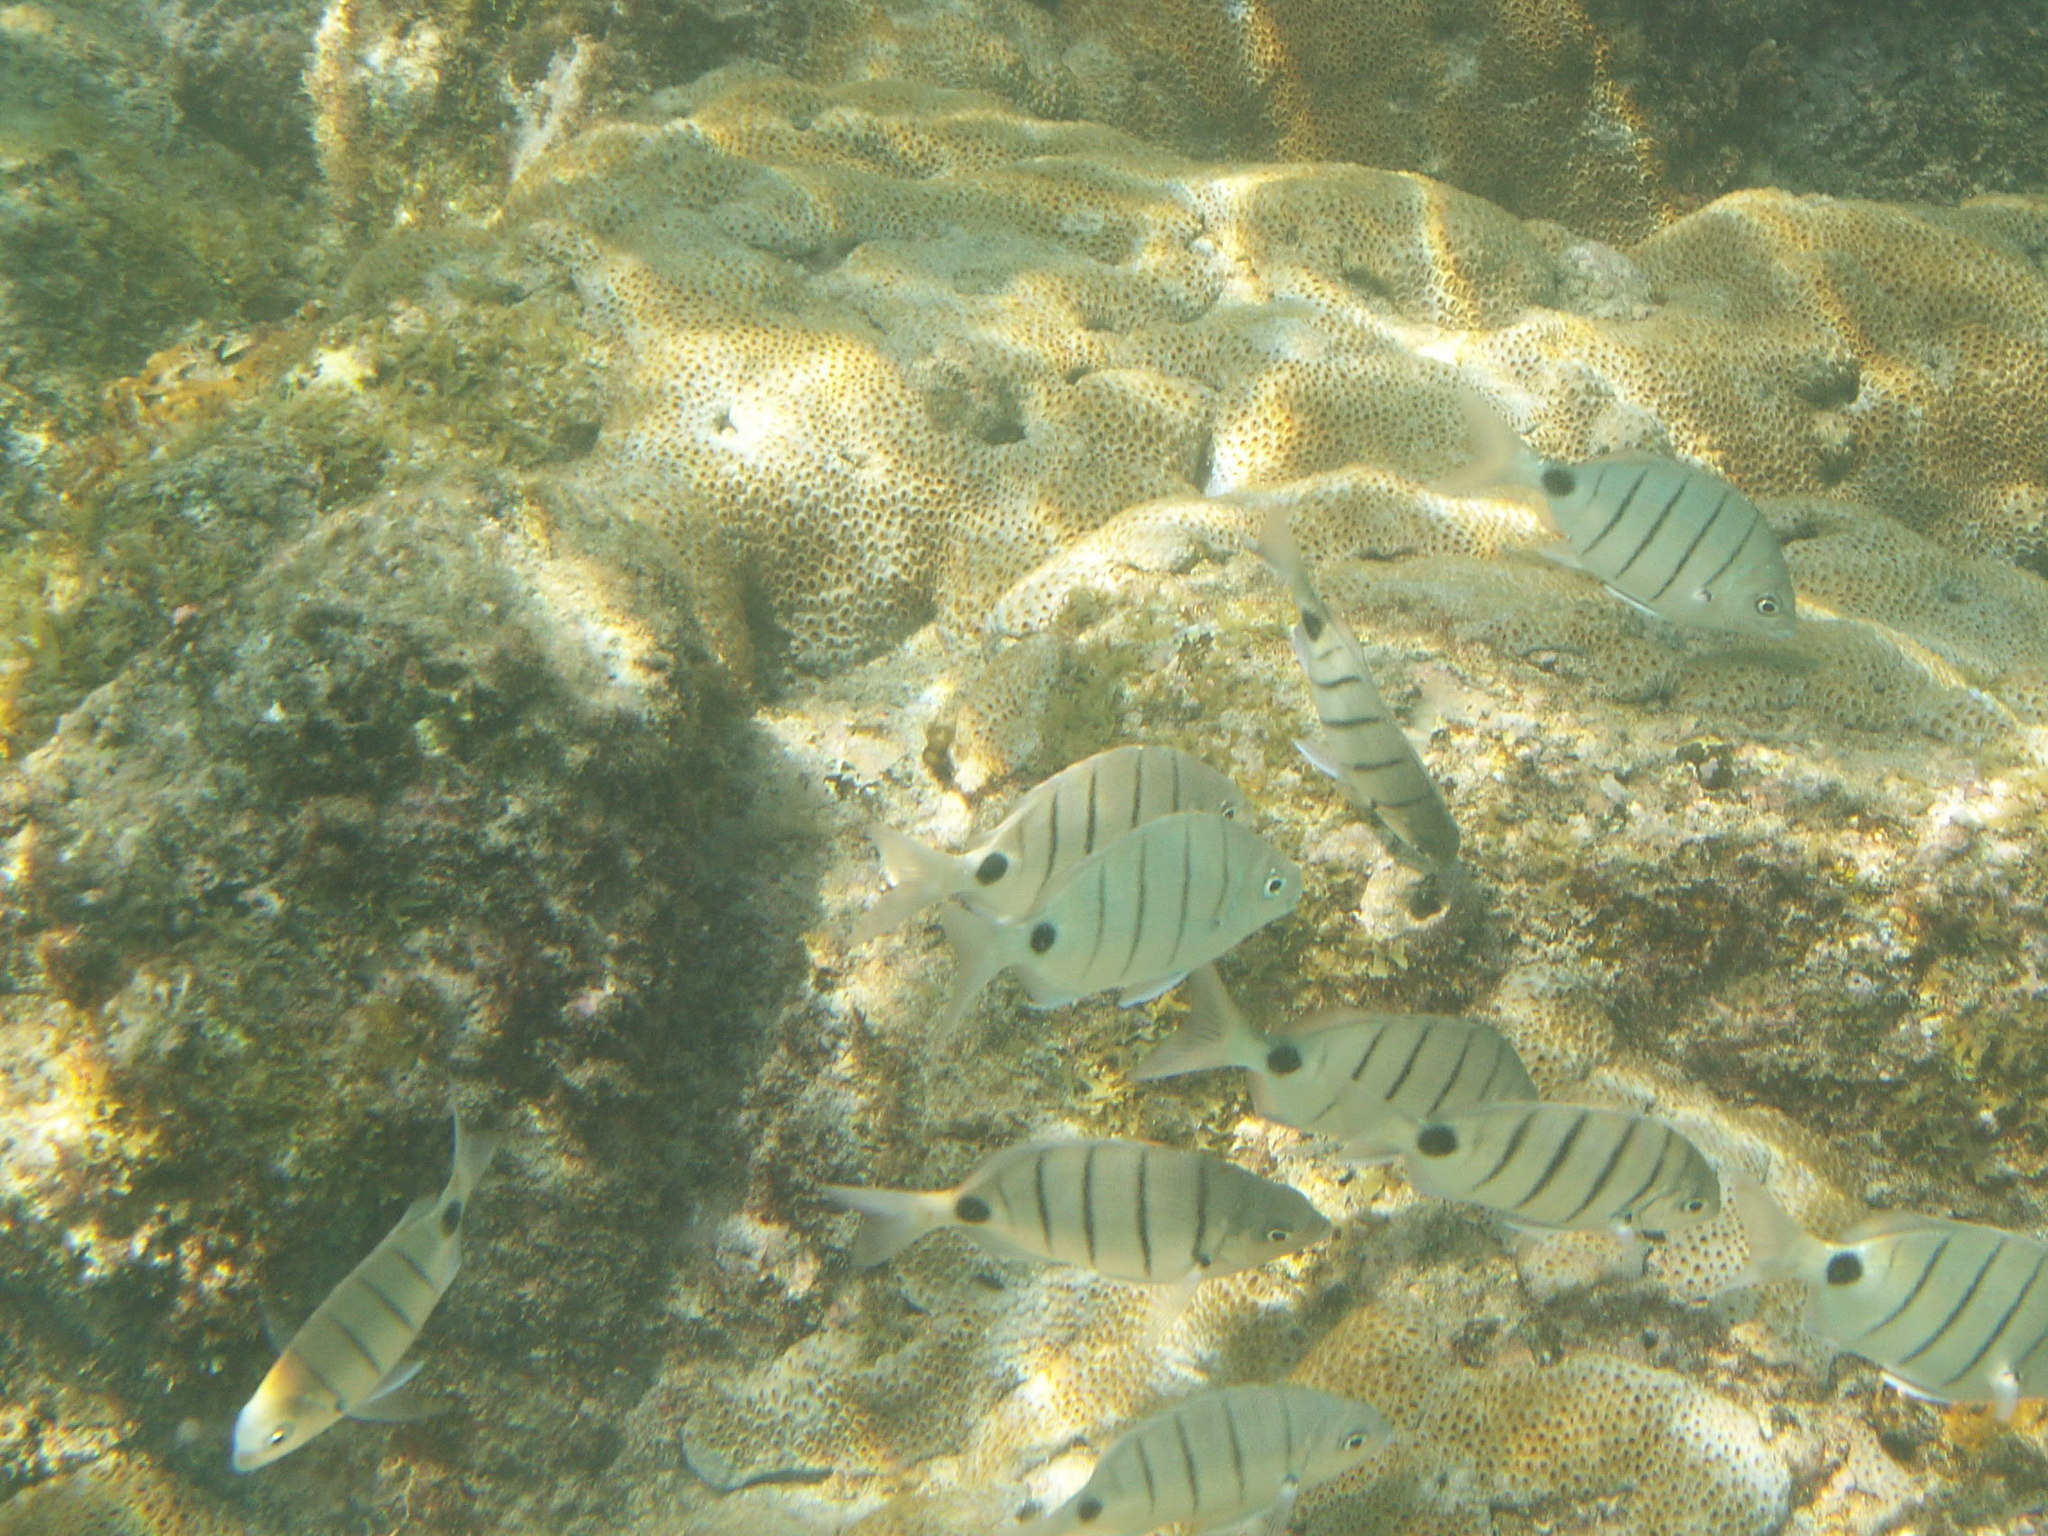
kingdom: Animalia
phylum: Chordata
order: Perciformes
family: Sparidae
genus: Diplodus
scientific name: Diplodus lineatus
